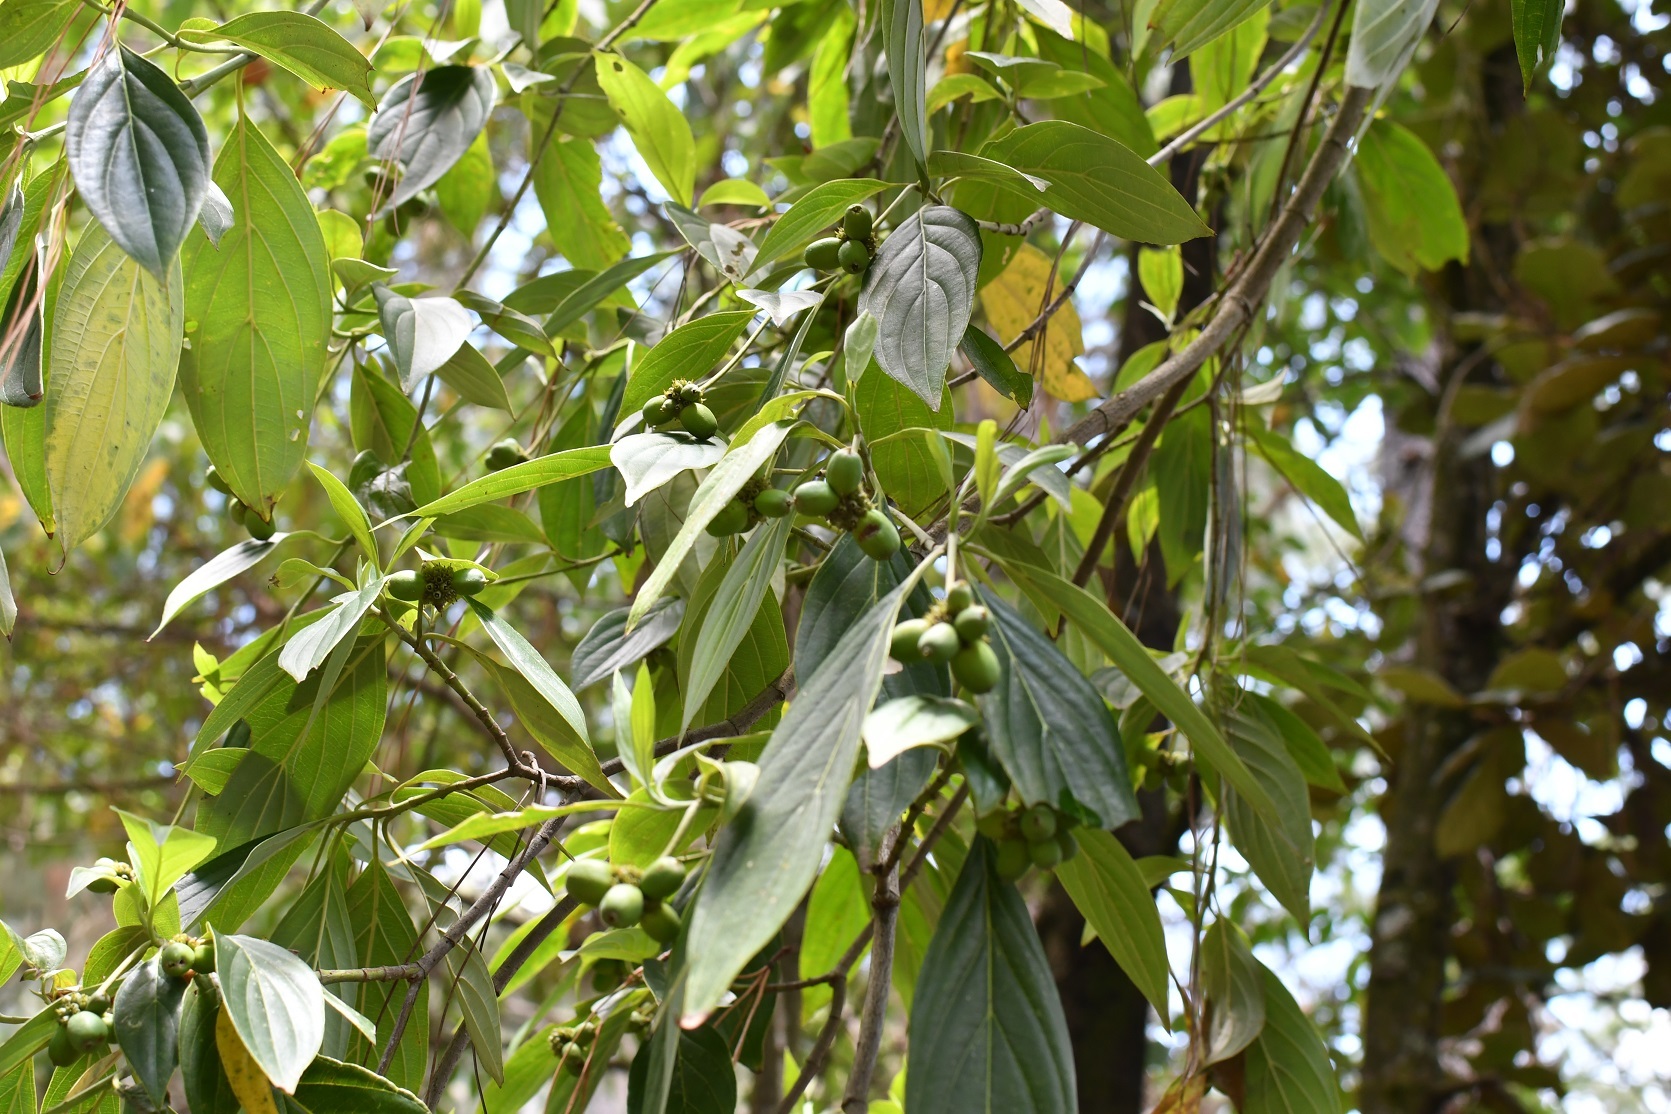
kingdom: Plantae
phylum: Tracheophyta
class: Magnoliopsida
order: Cornales
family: Cornaceae
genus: Cornus
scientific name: Cornus disciflora
